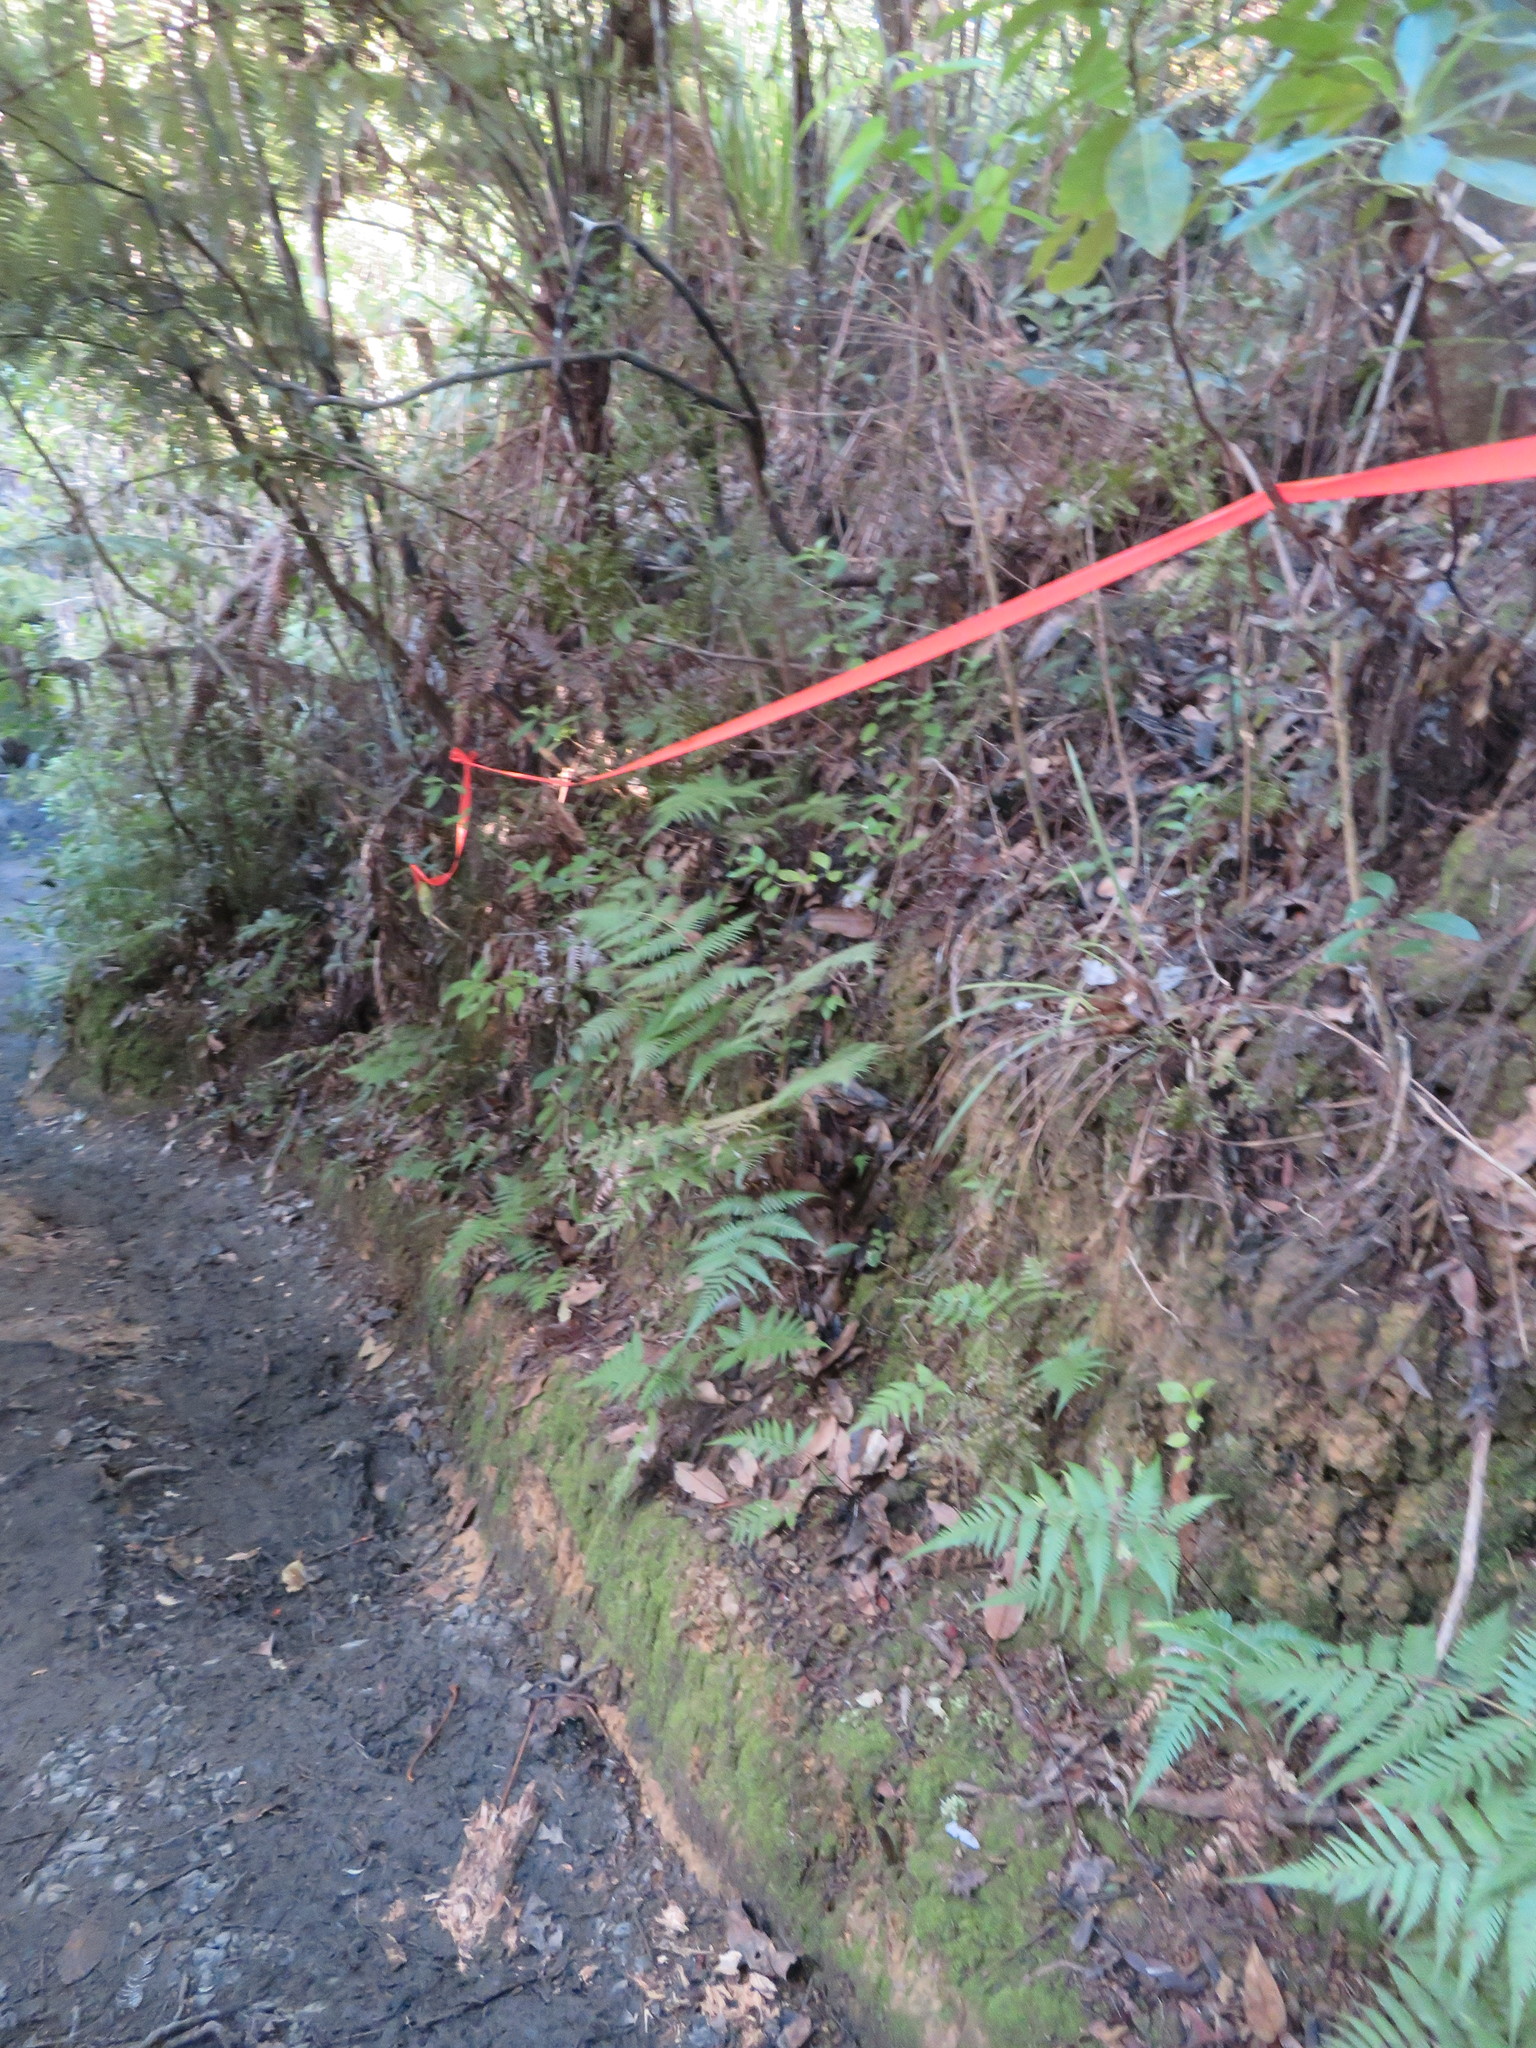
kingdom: Plantae
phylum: Tracheophyta
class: Polypodiopsida
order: Cyatheales
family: Cyatheaceae
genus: Alsophila
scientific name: Alsophila dealbata
